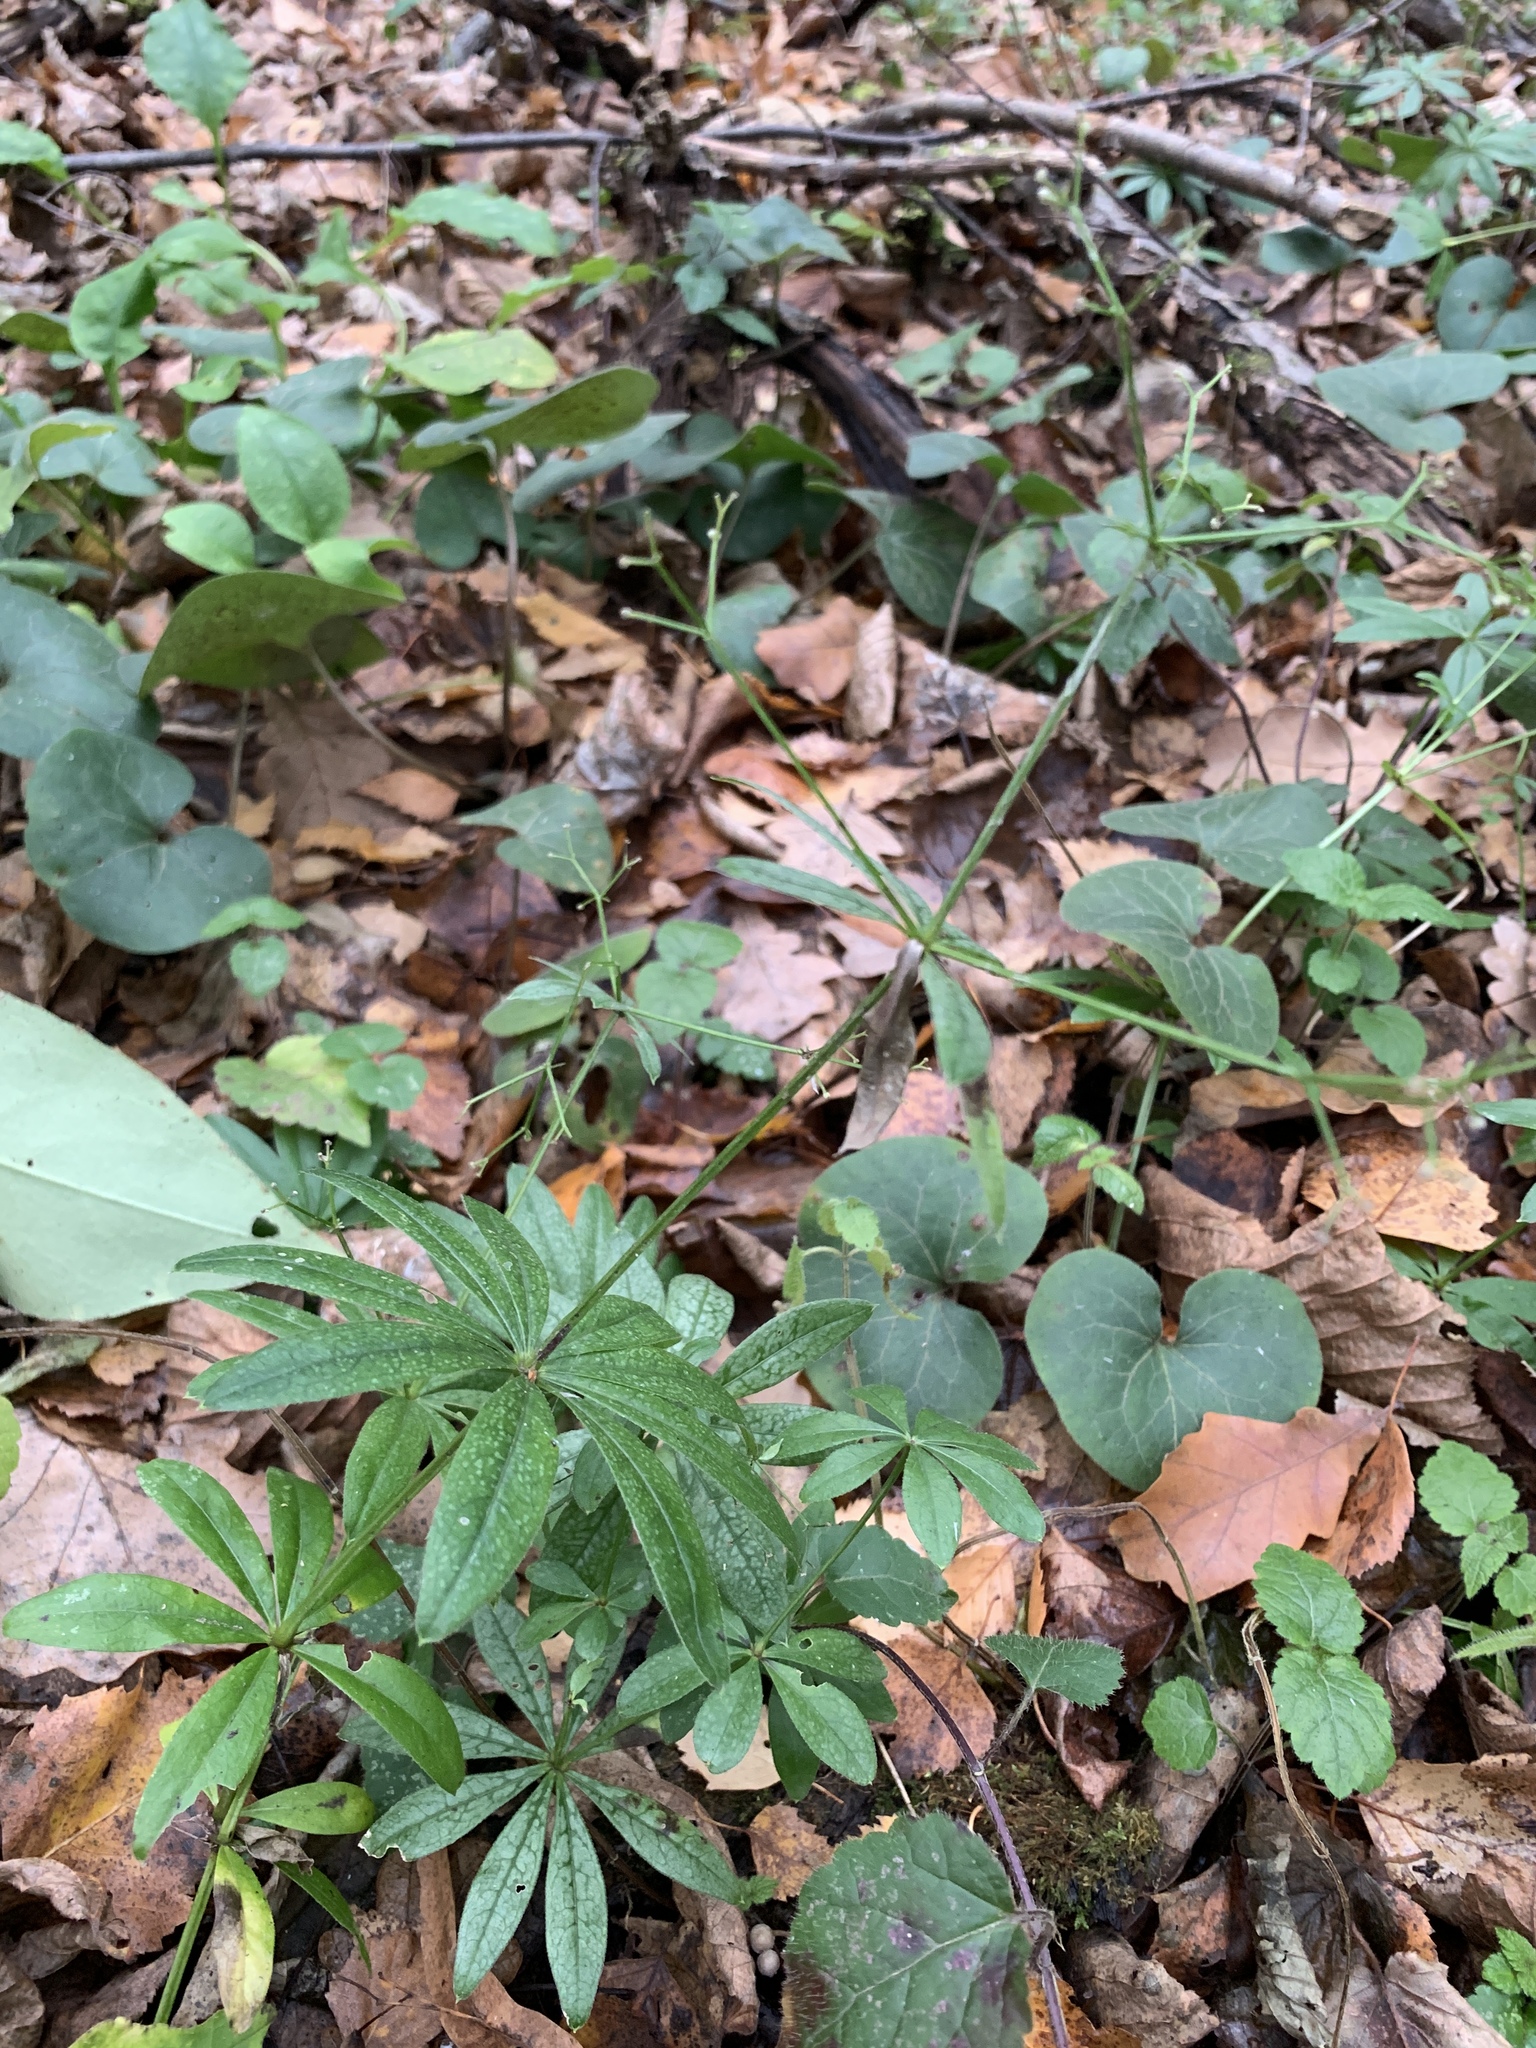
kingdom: Plantae
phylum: Tracheophyta
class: Magnoliopsida
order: Gentianales
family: Rubiaceae
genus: Galium
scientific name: Galium odoratum
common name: Sweet woodruff
